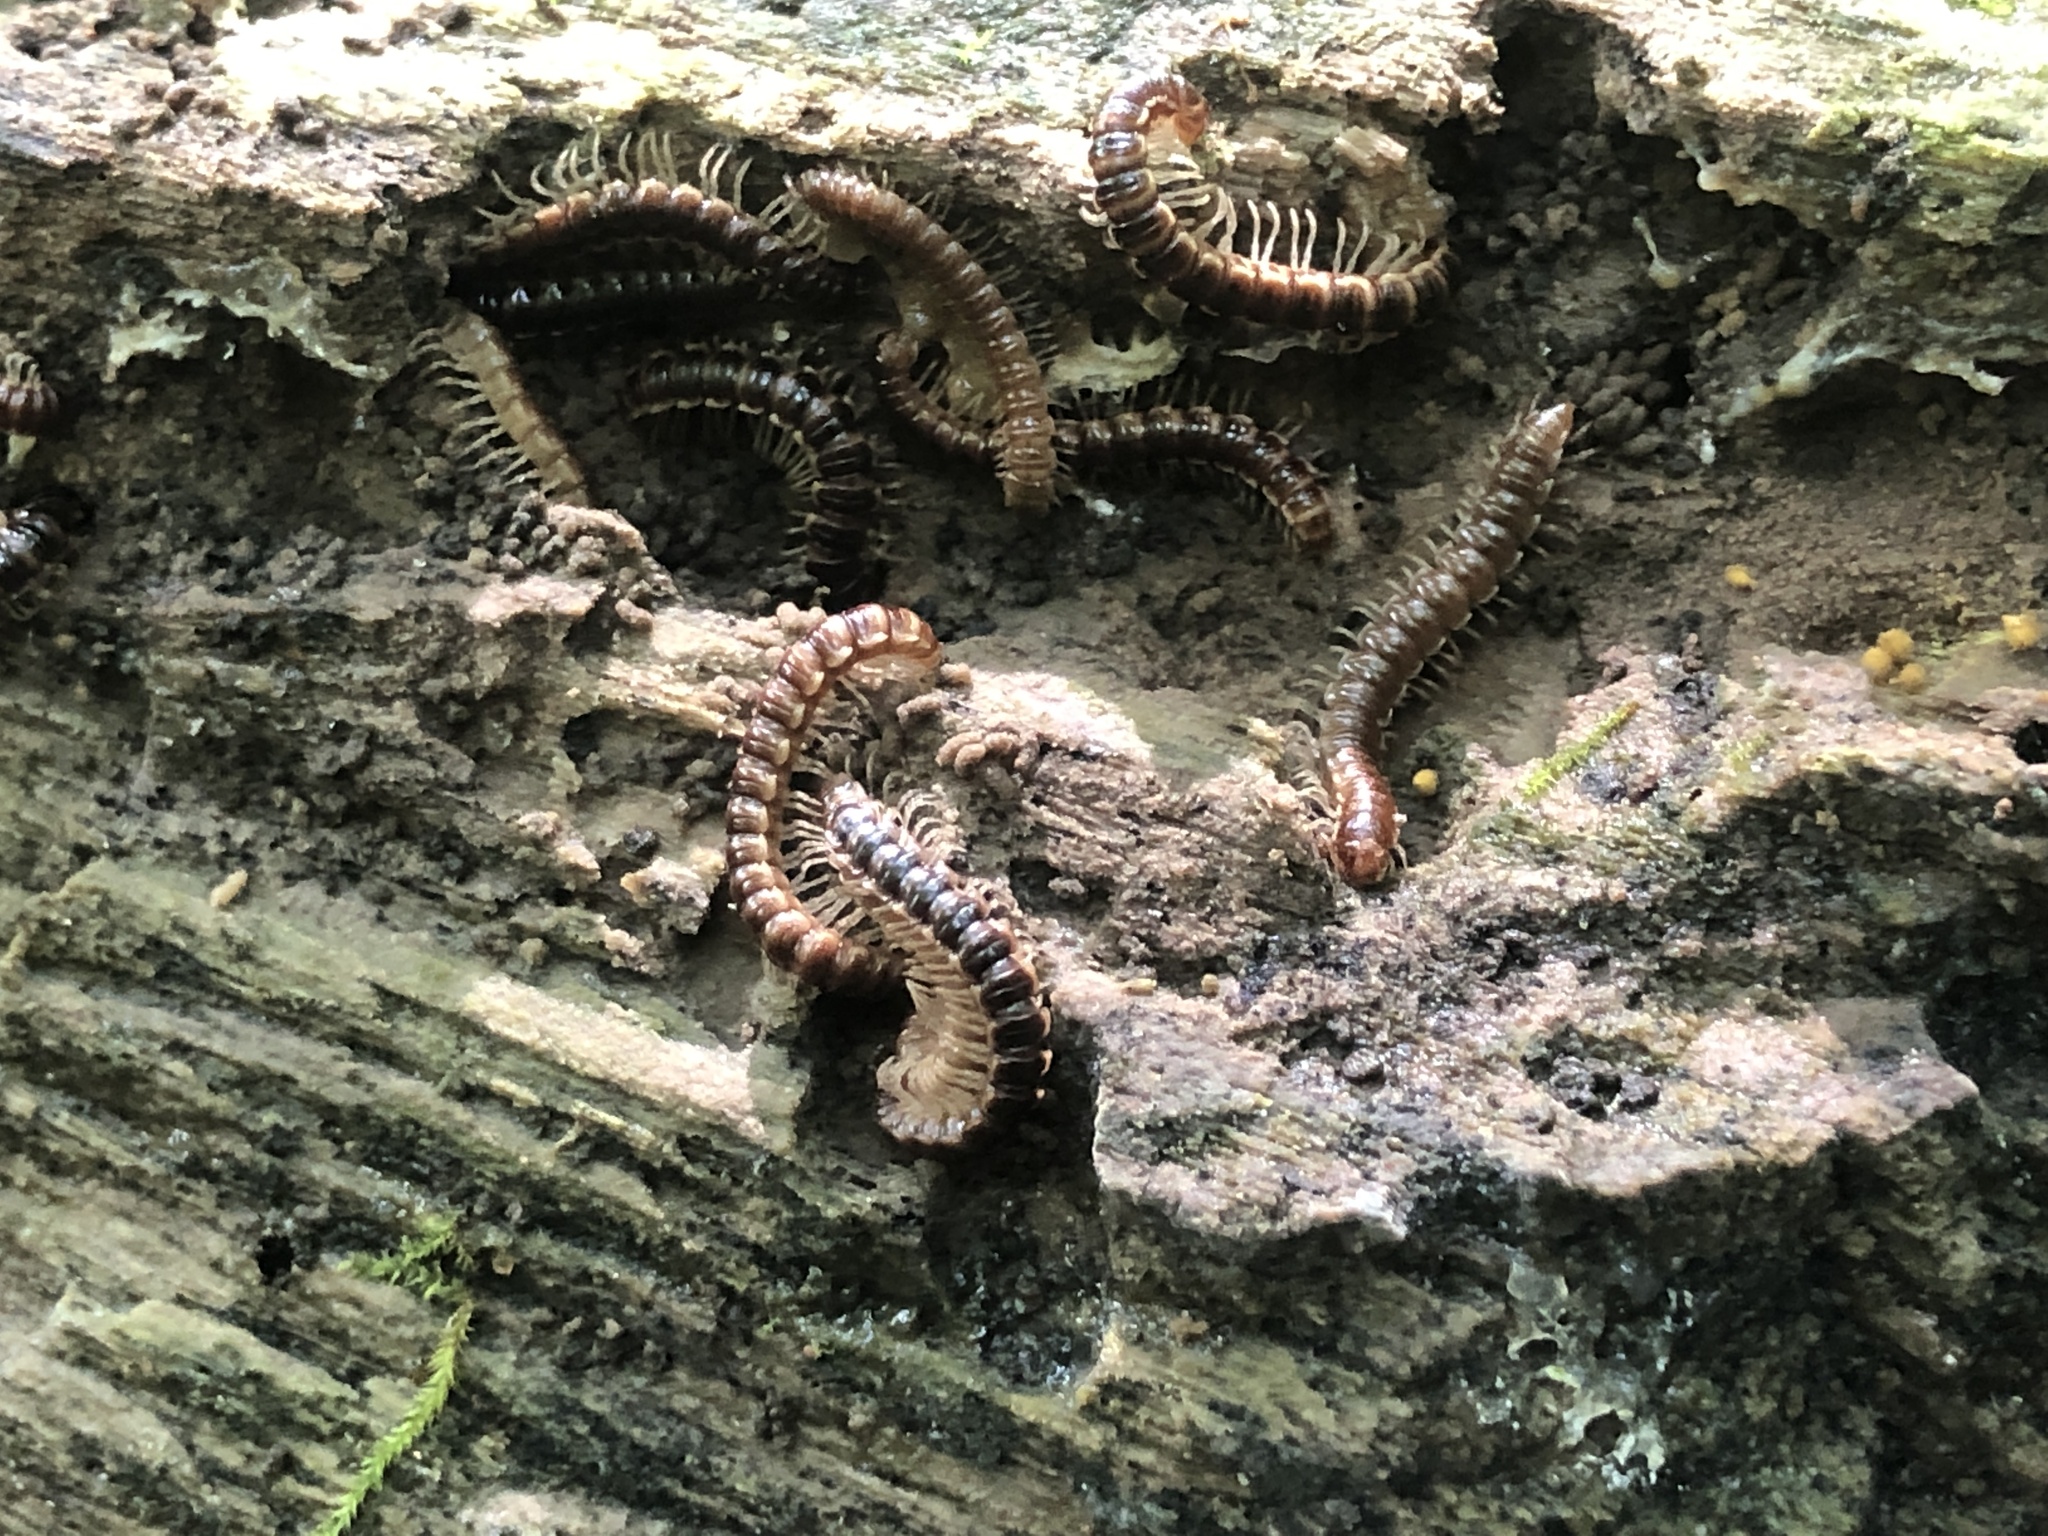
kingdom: Animalia
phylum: Arthropoda
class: Diplopoda
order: Polydesmida
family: Paradoxosomatidae
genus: Oxidus
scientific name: Oxidus gracilis
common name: Greenhouse millipede
